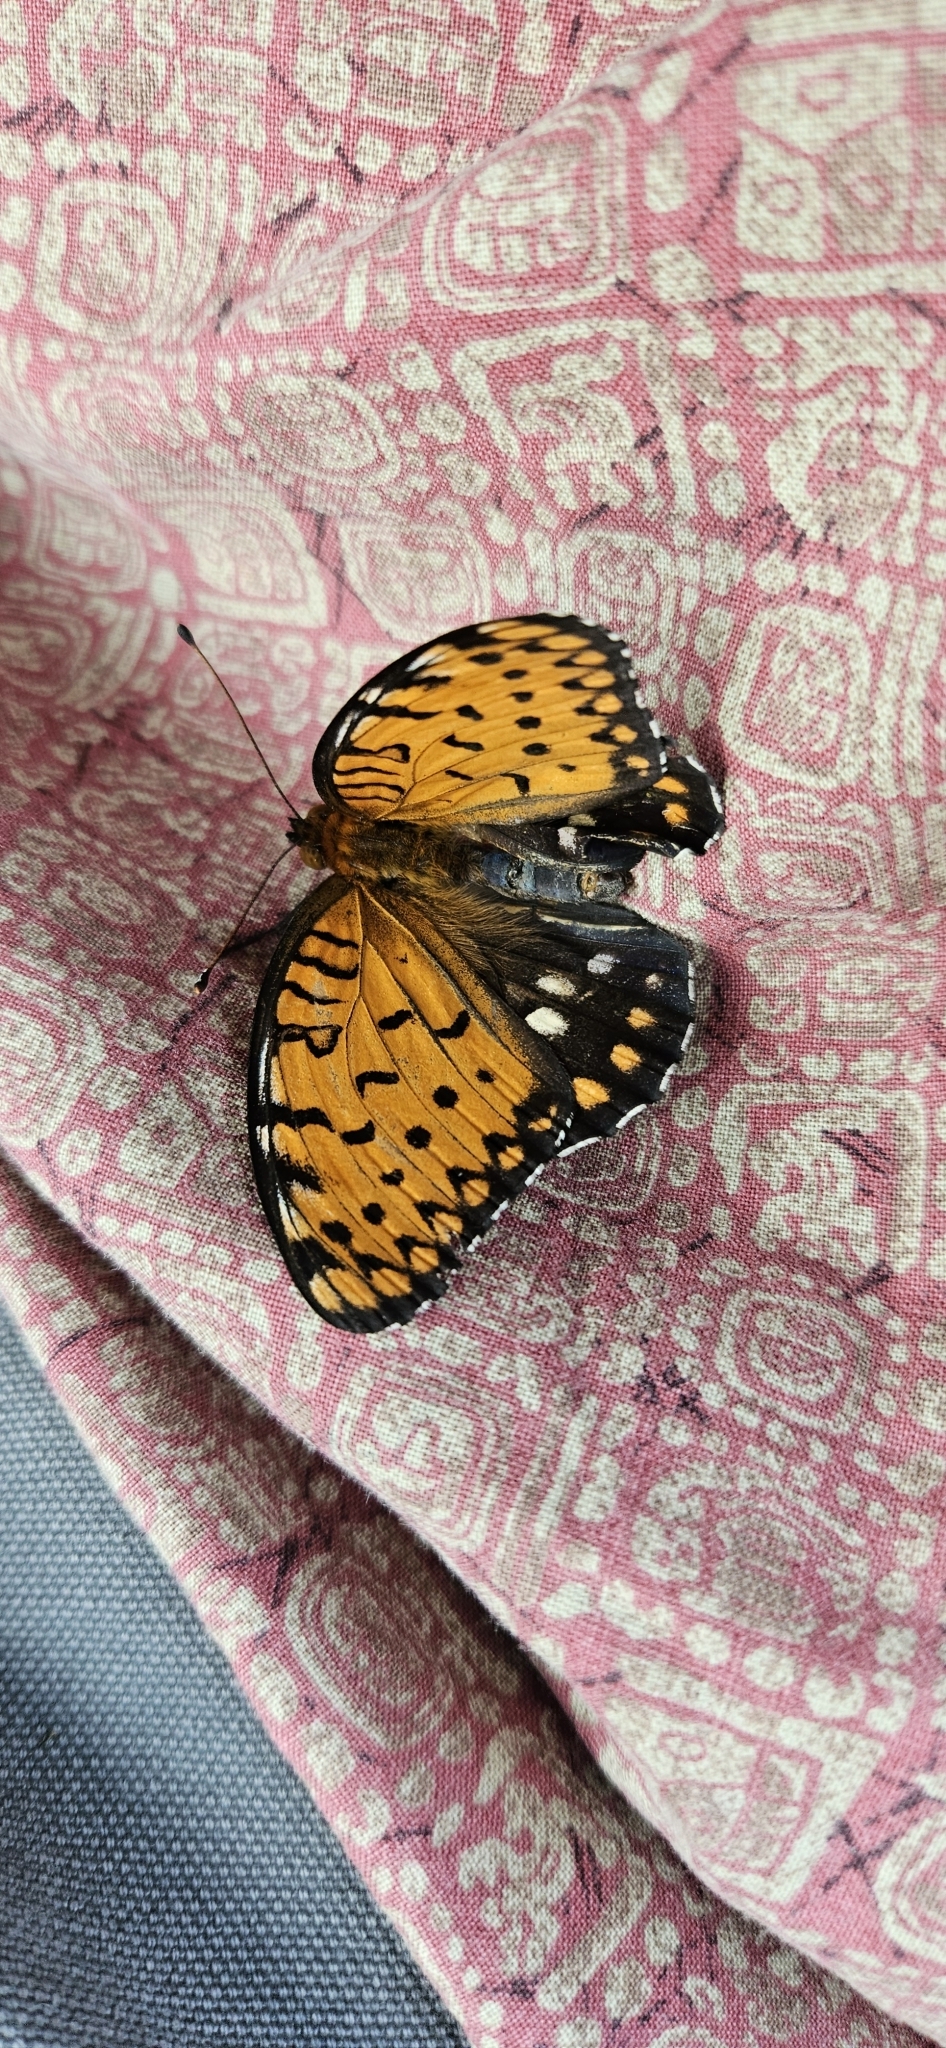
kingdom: Animalia
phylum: Arthropoda
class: Insecta
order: Lepidoptera
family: Nymphalidae
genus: Speyeria
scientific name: Speyeria idalia
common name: Regal fritillary
